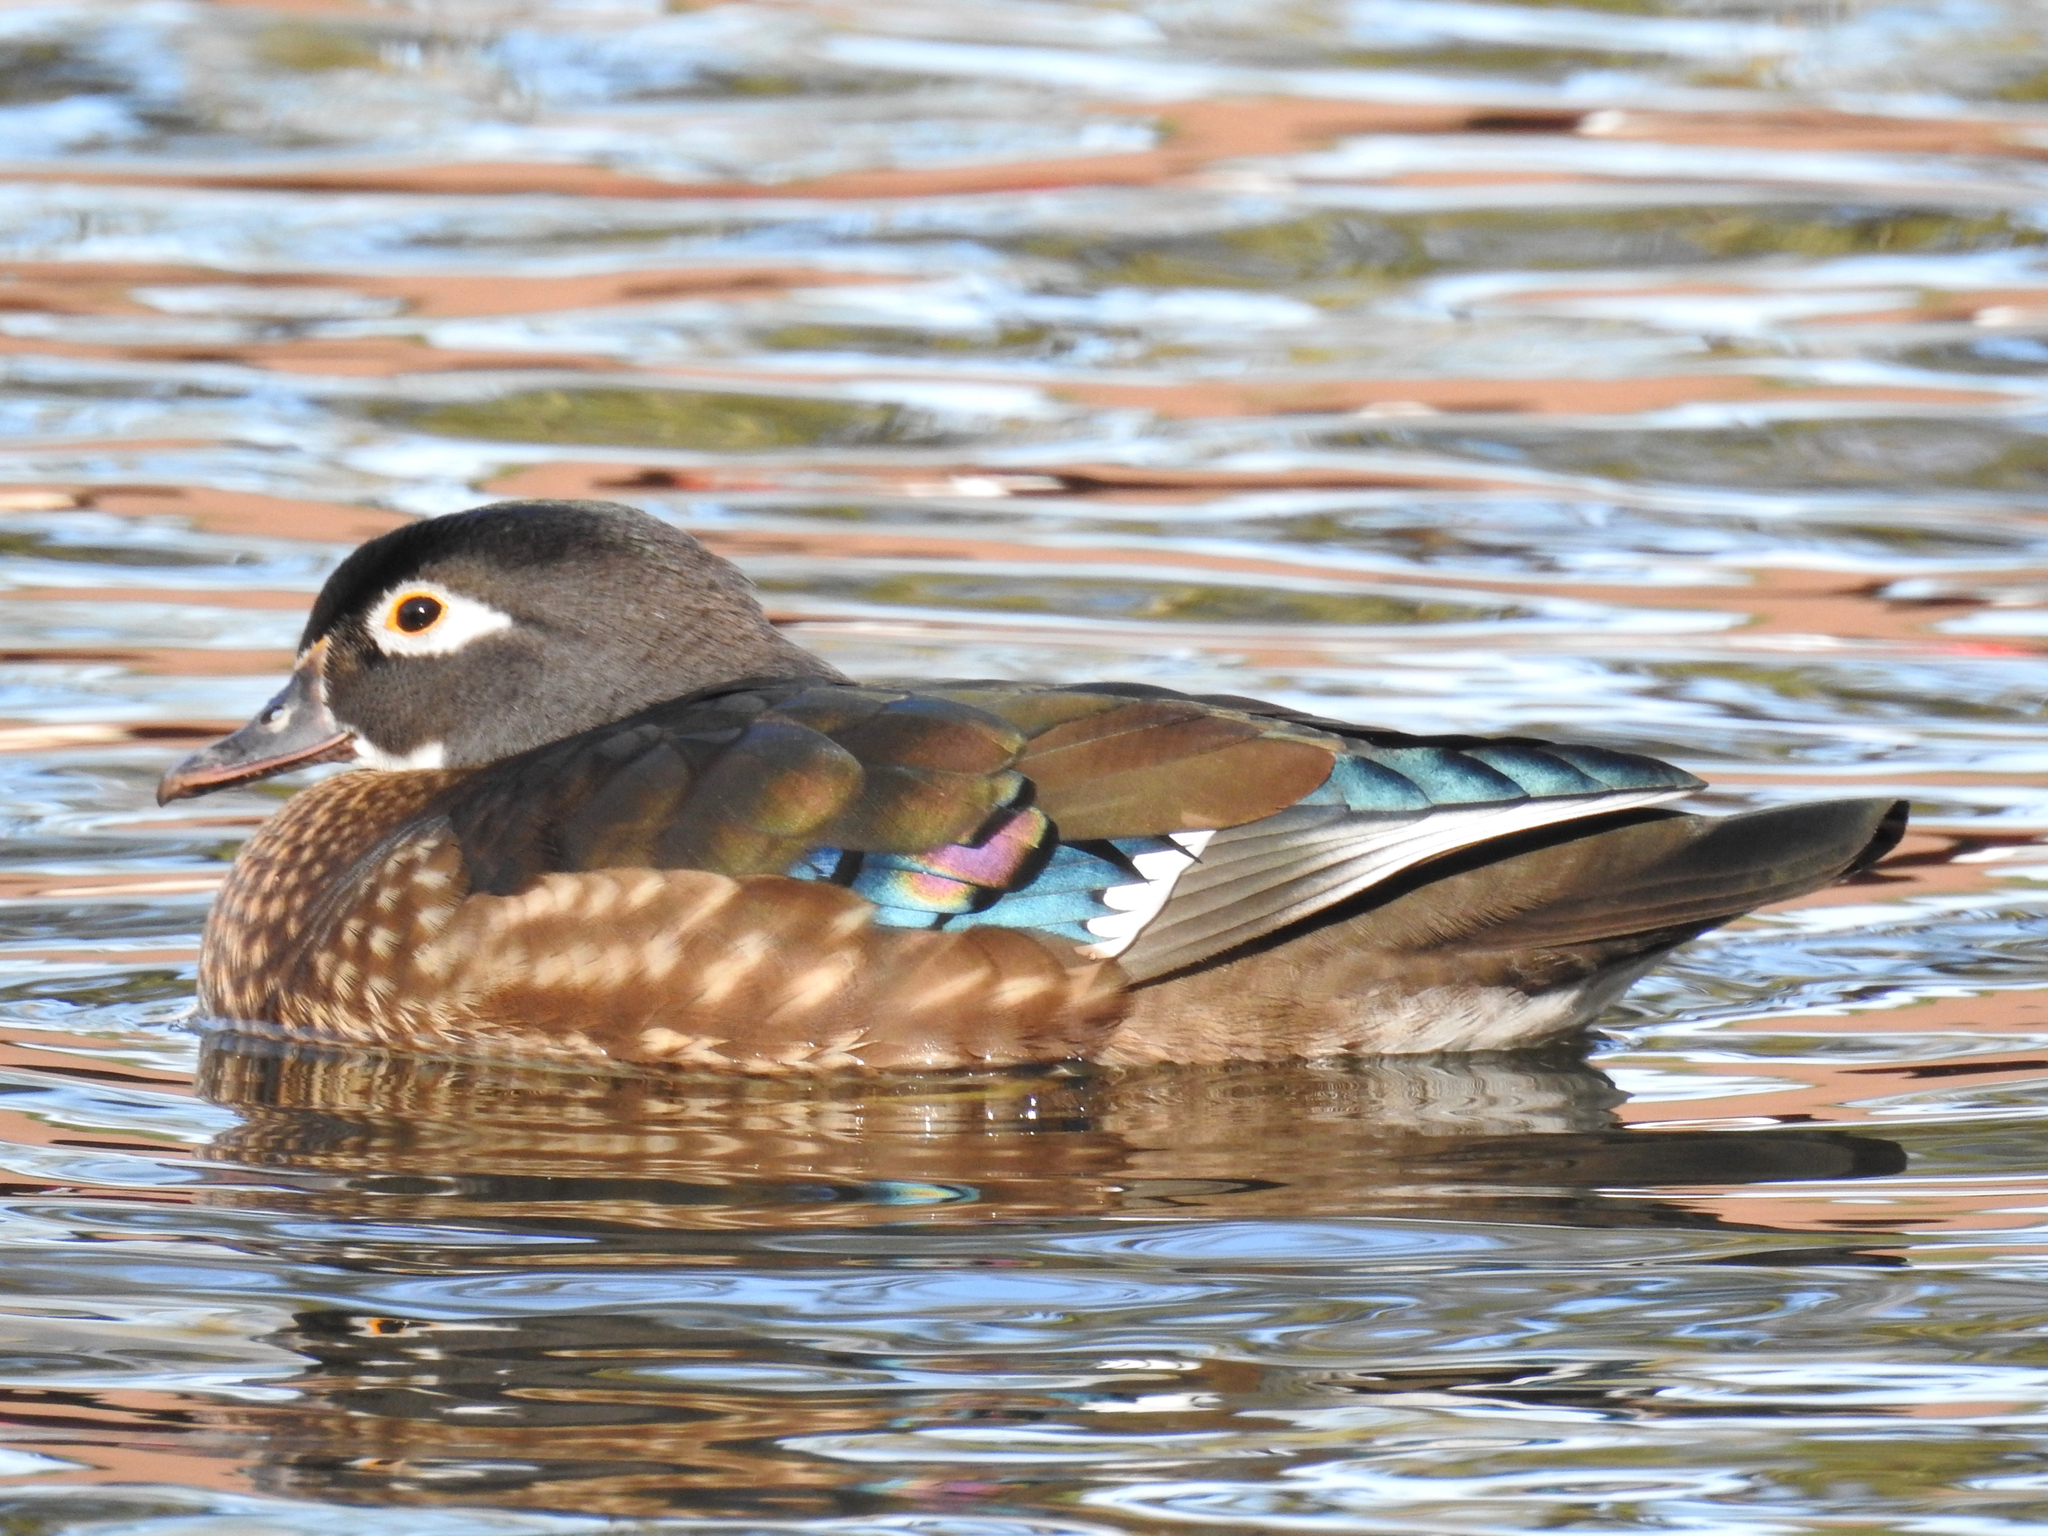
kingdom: Animalia
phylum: Chordata
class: Aves
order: Anseriformes
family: Anatidae
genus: Aix
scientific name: Aix sponsa
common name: Wood duck
